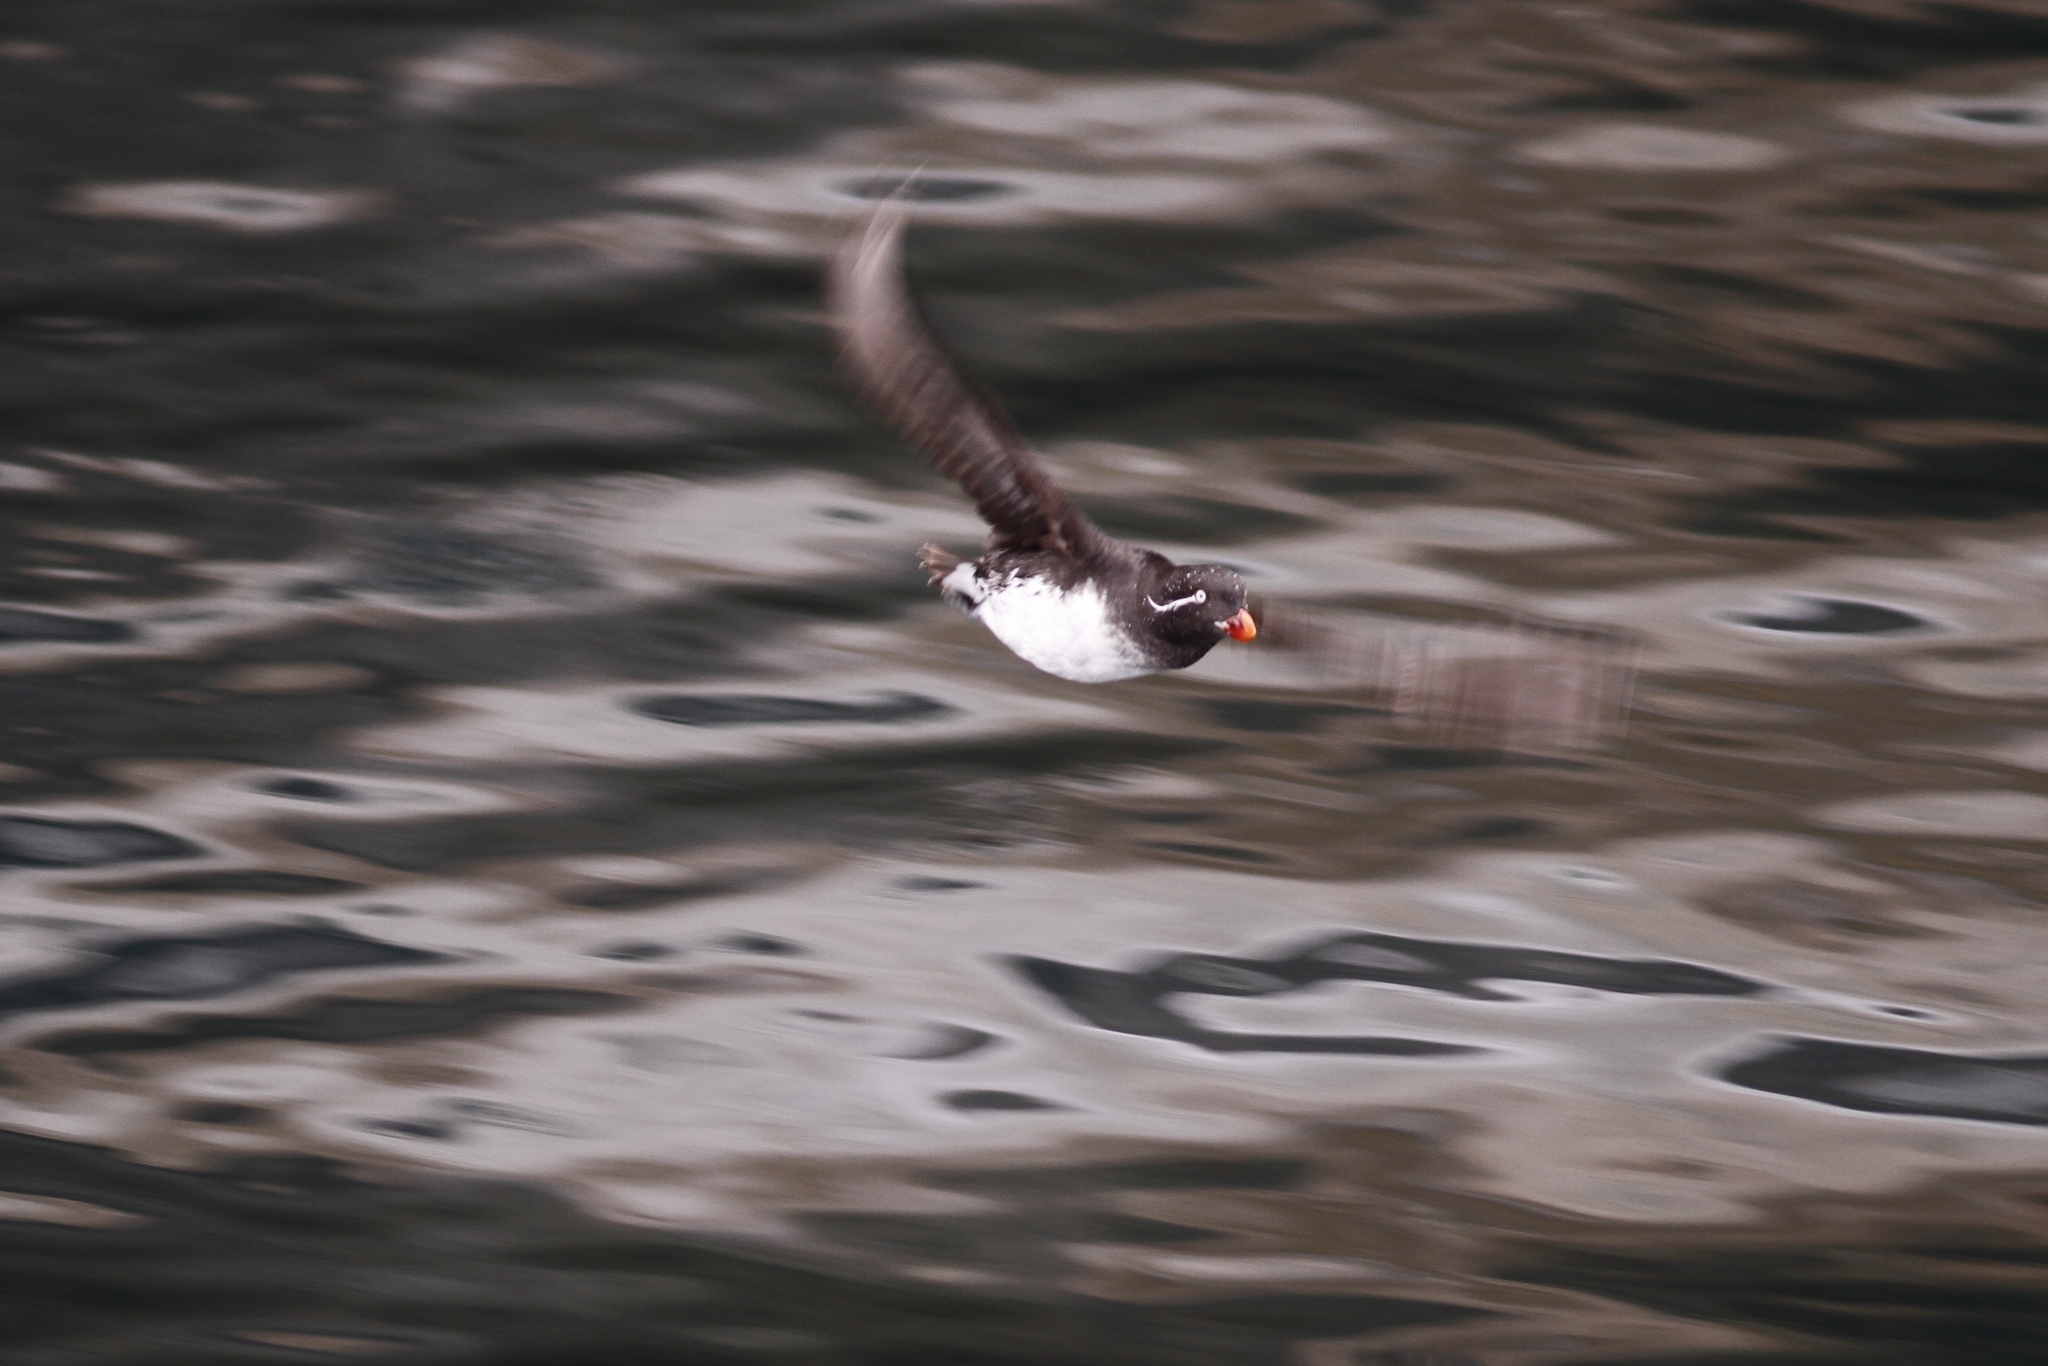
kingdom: Animalia
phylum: Chordata
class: Aves
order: Charadriiformes
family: Alcidae
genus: Aethia
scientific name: Aethia psittacula
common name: Parakeet auklet
